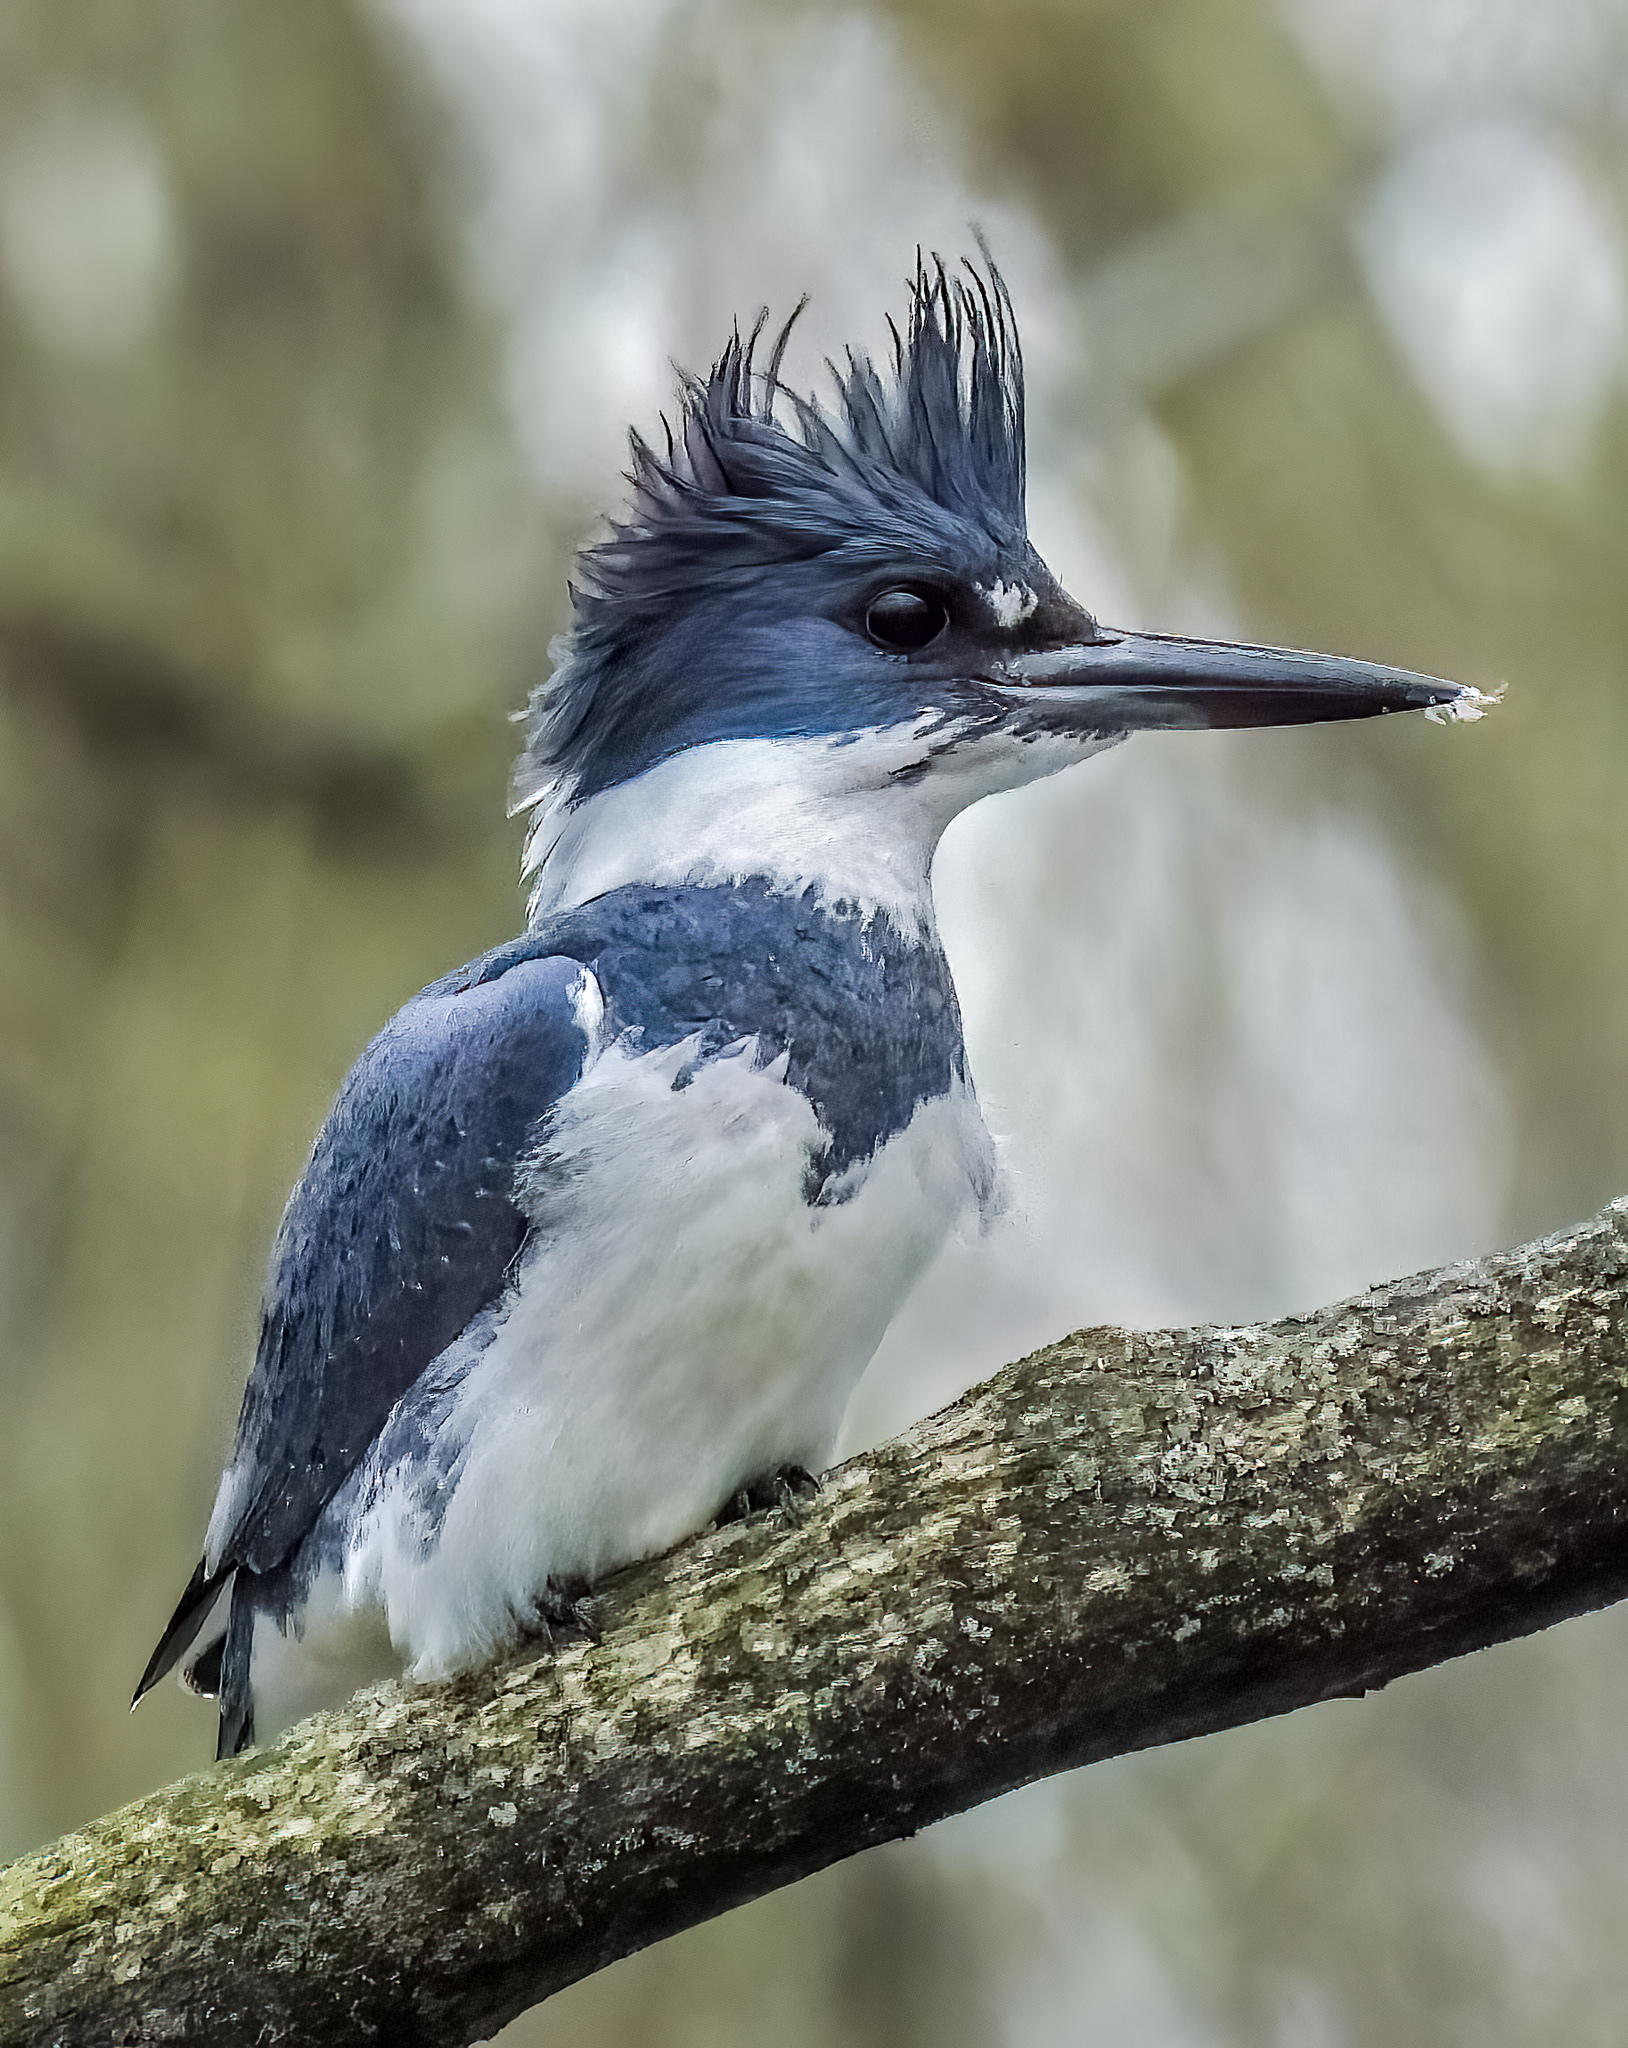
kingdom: Animalia
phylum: Chordata
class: Aves
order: Coraciiformes
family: Alcedinidae
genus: Megaceryle
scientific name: Megaceryle alcyon
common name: Belted kingfisher
